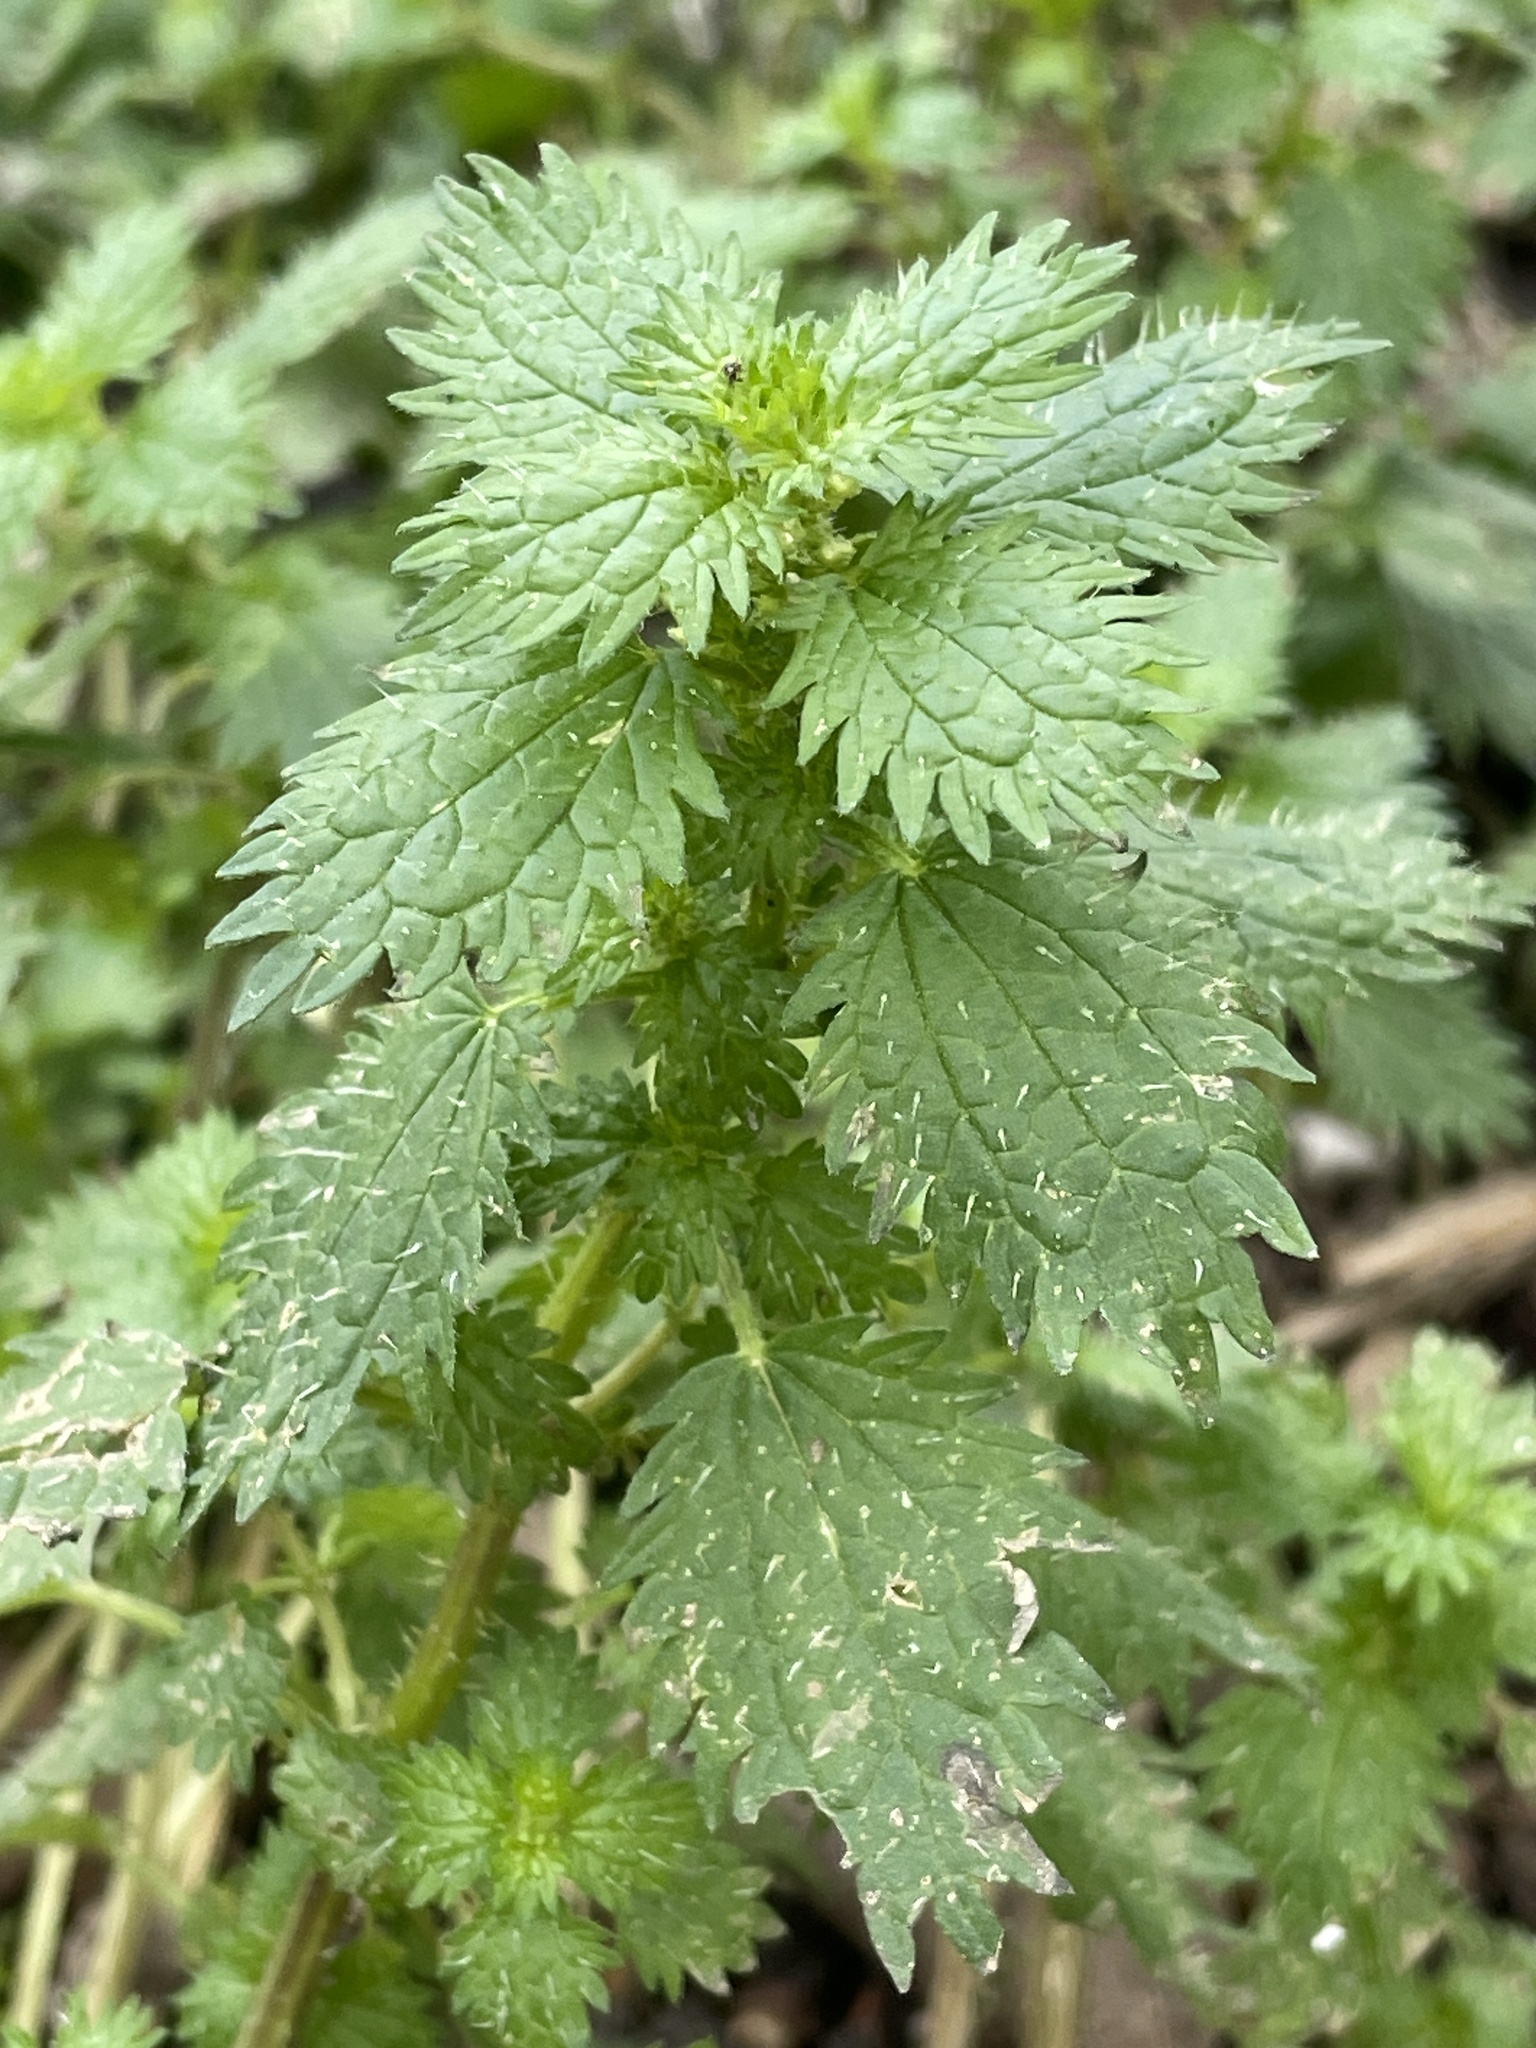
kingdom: Plantae
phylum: Tracheophyta
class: Magnoliopsida
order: Rosales
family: Urticaceae
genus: Urtica
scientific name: Urtica urens
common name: Dwarf nettle
